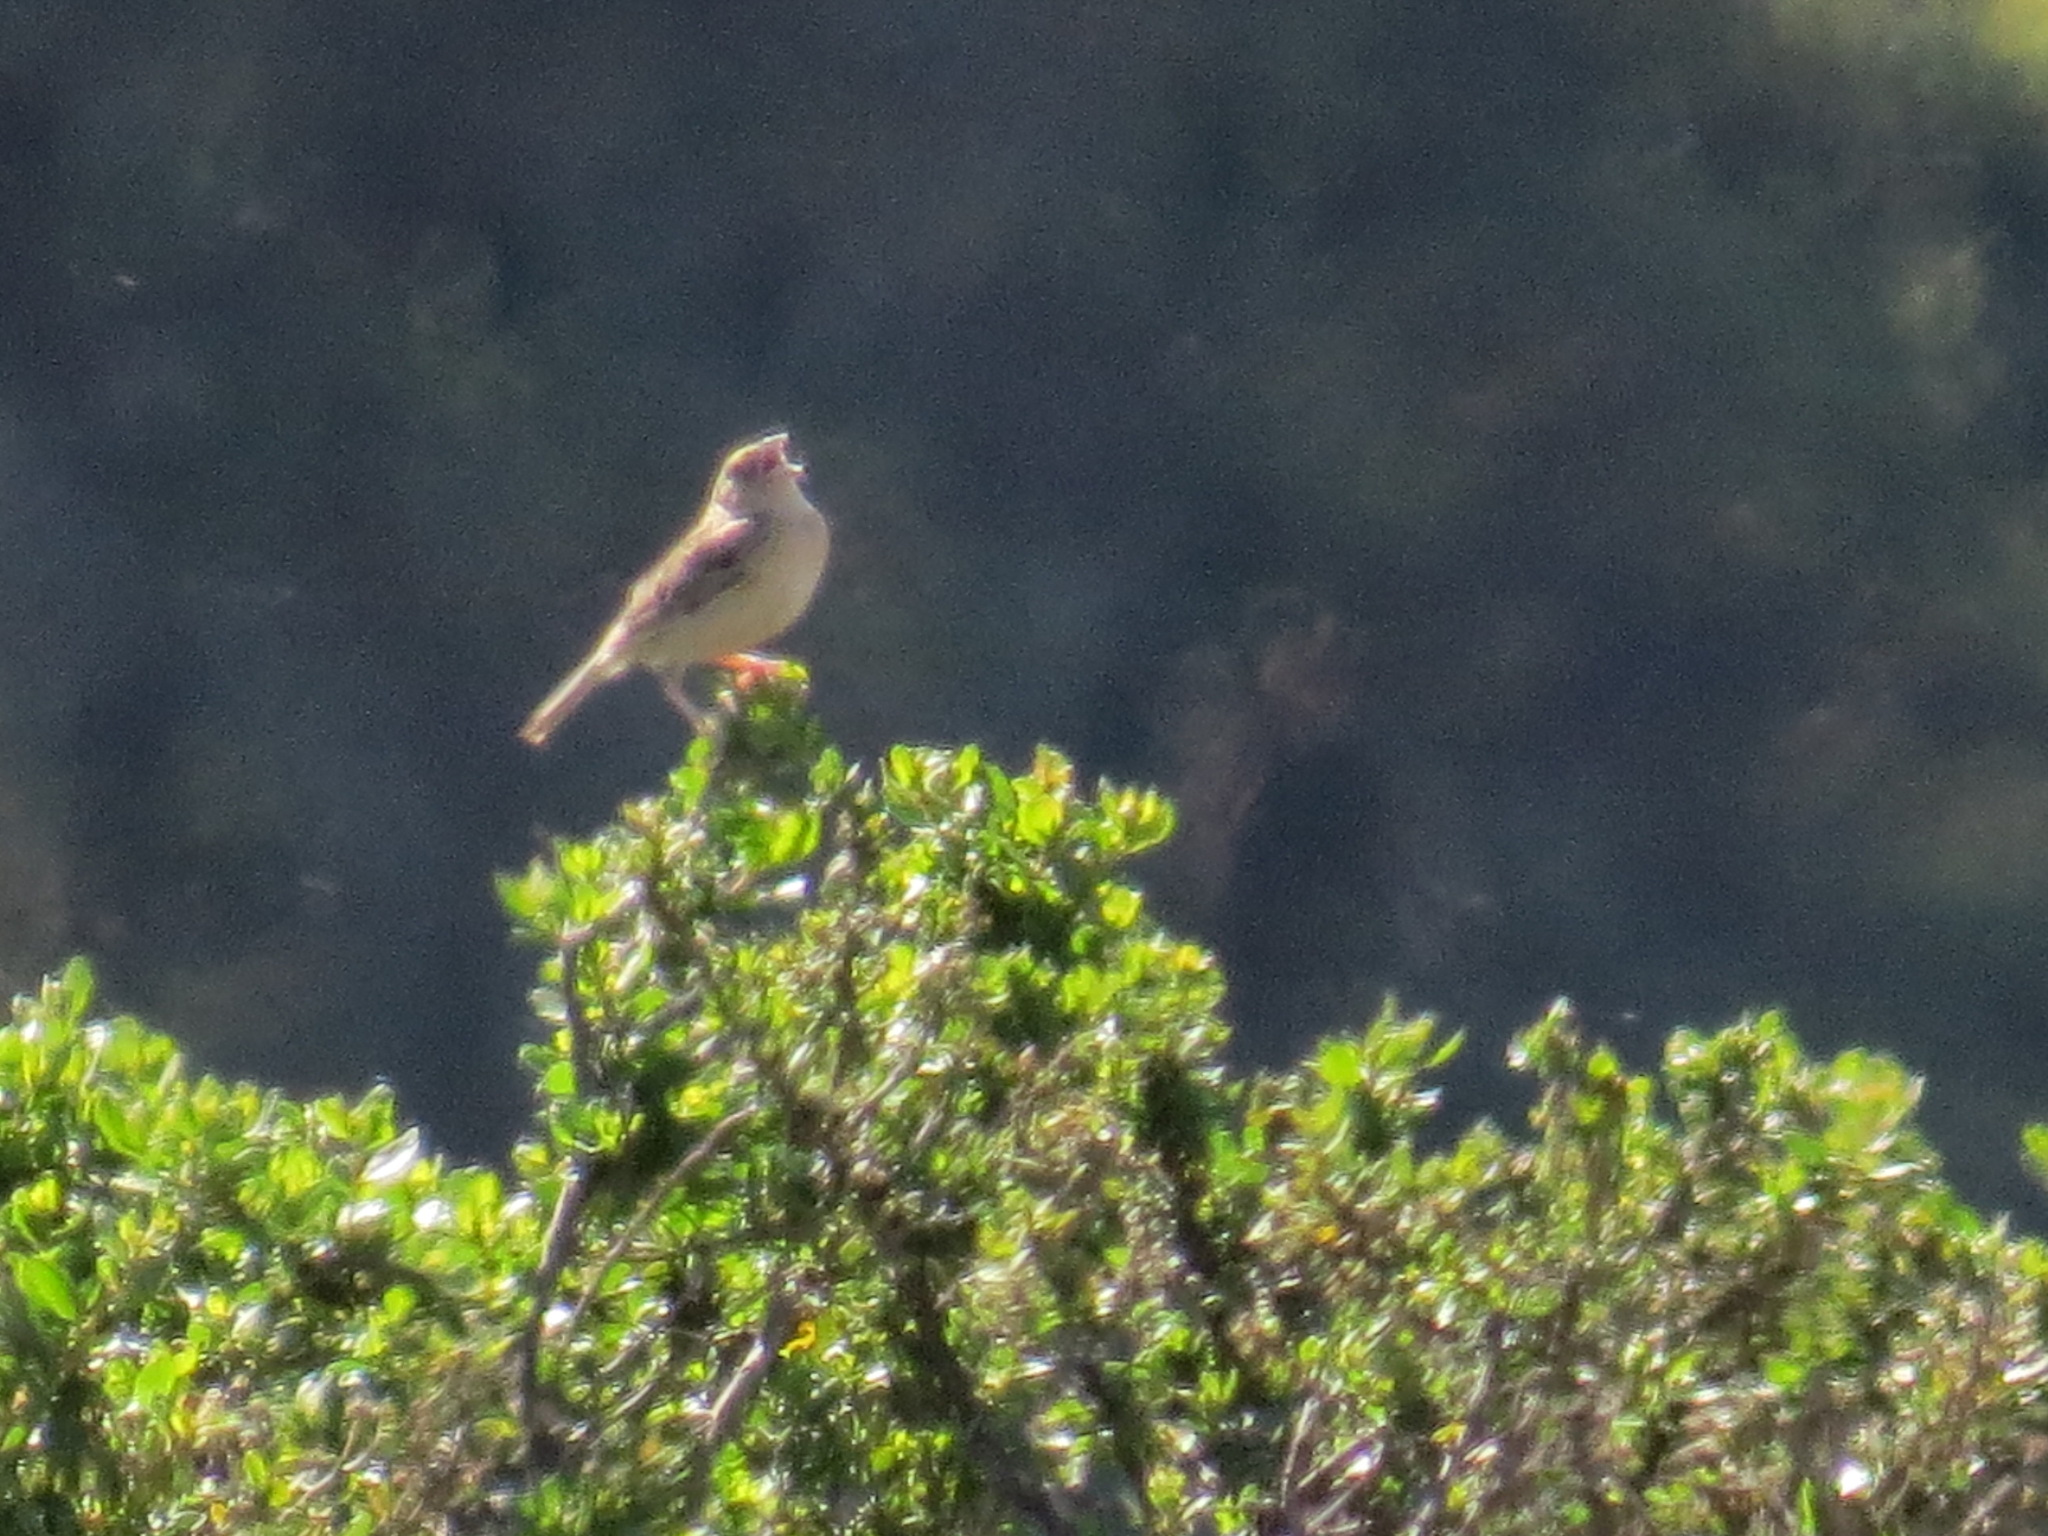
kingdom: Animalia
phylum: Chordata
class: Aves
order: Passeriformes
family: Passerellidae
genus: Ammodramus
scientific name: Ammodramus savannarum
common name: Grasshopper sparrow
